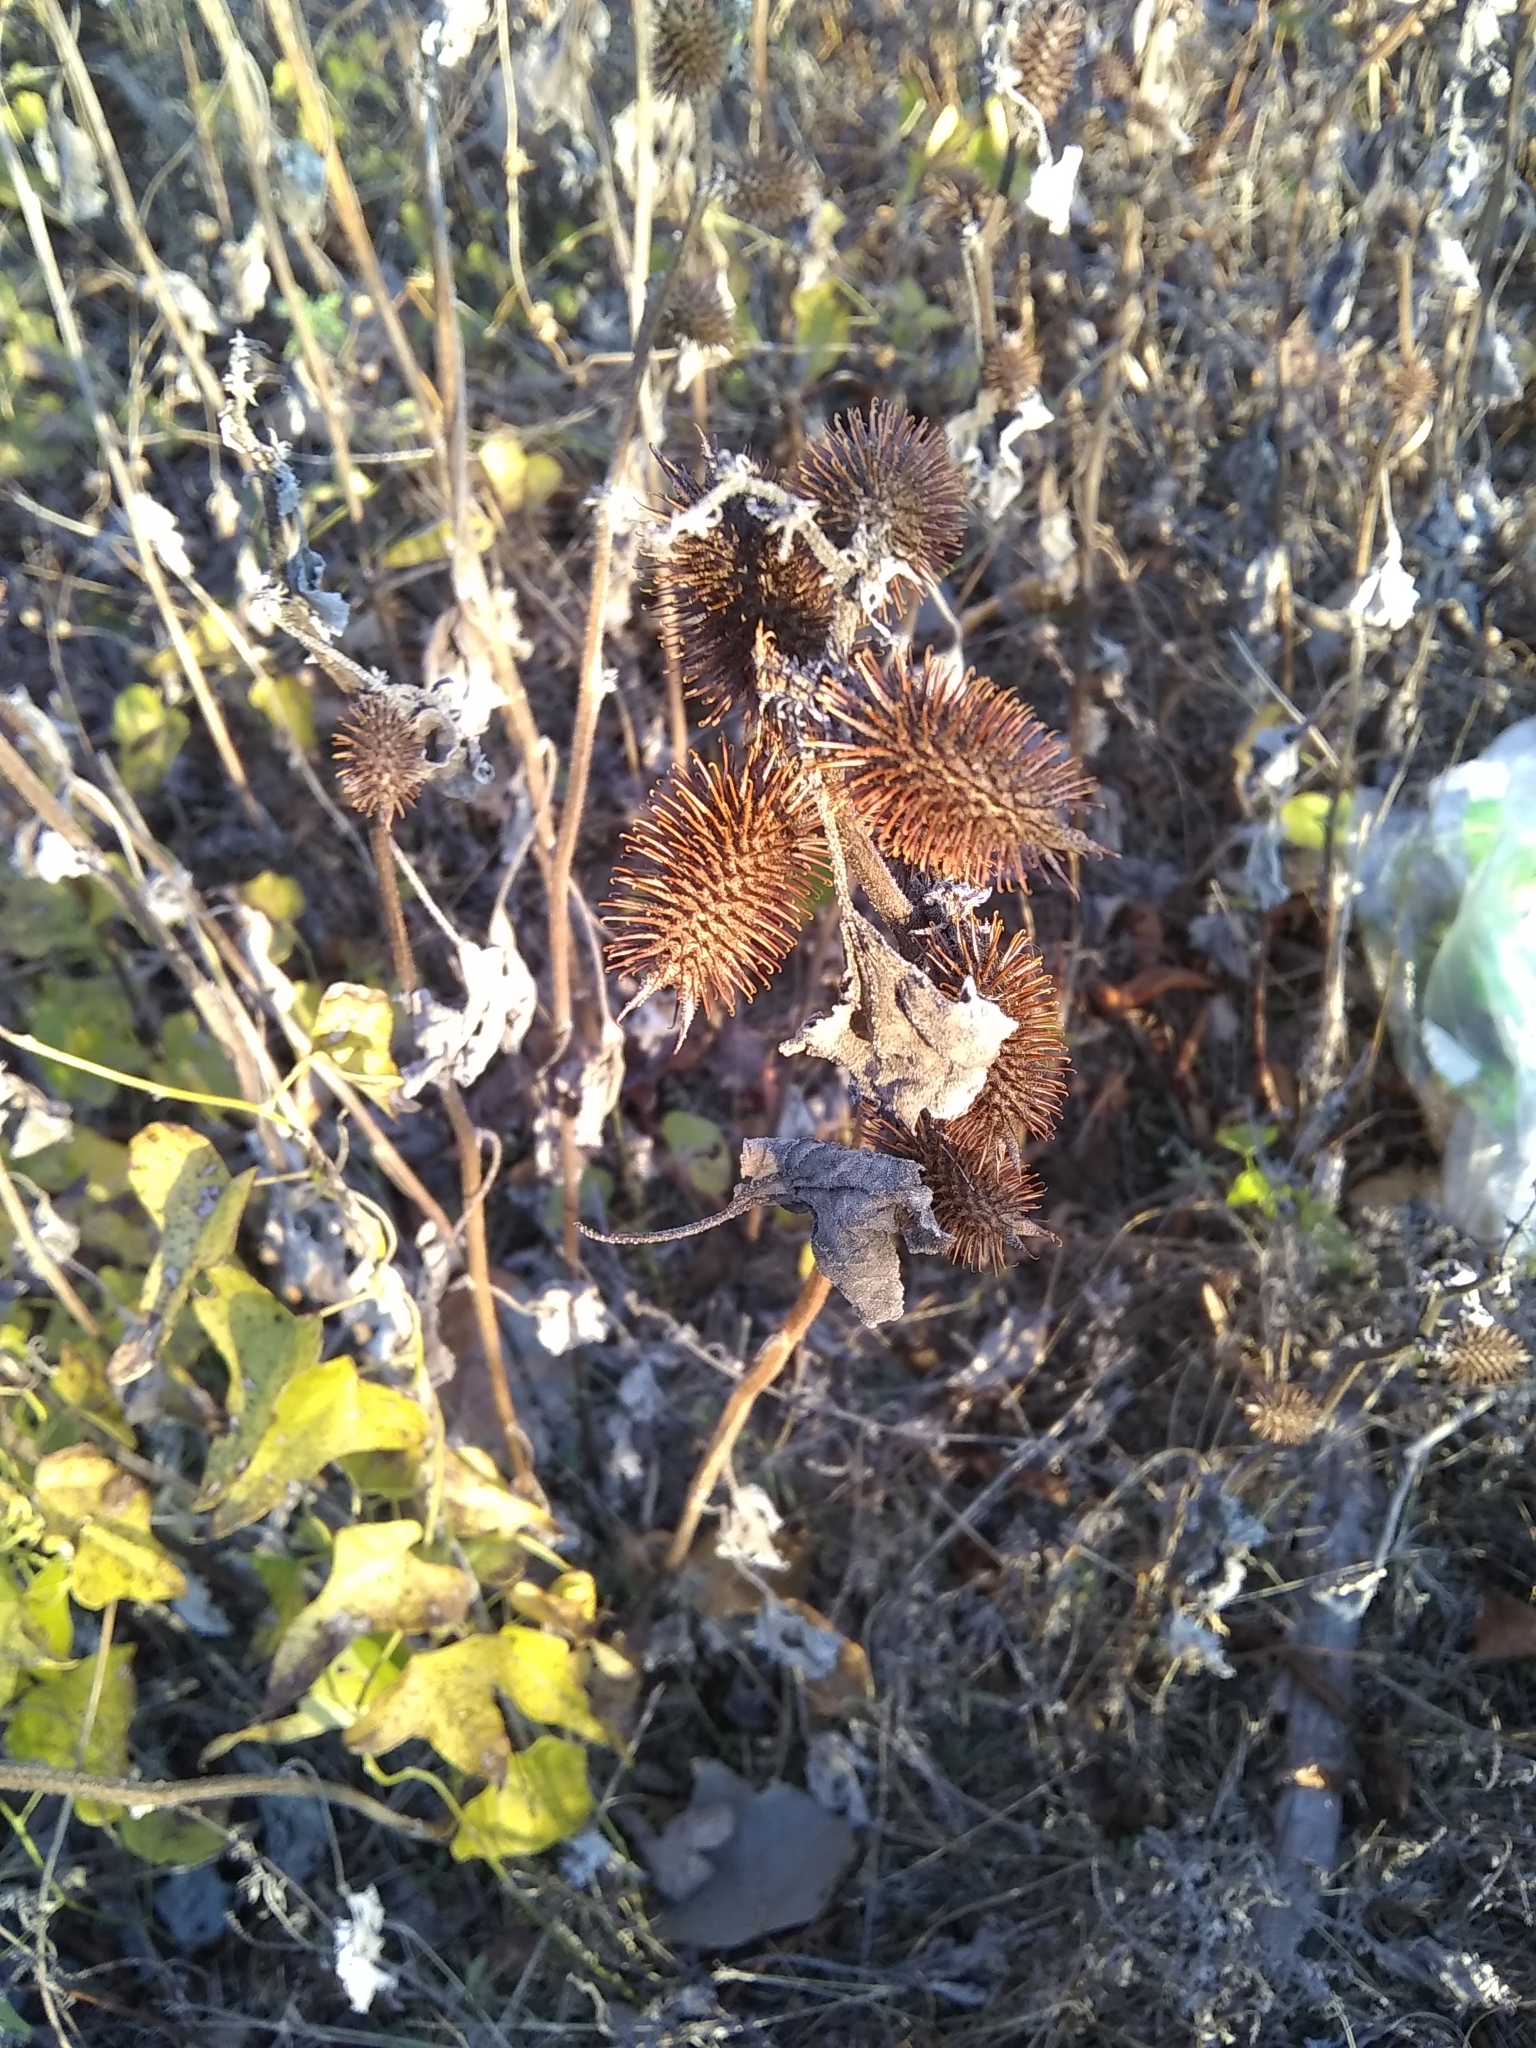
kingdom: Plantae
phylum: Tracheophyta
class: Magnoliopsida
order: Asterales
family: Asteraceae
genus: Xanthium
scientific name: Xanthium strumarium
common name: Rough cocklebur
